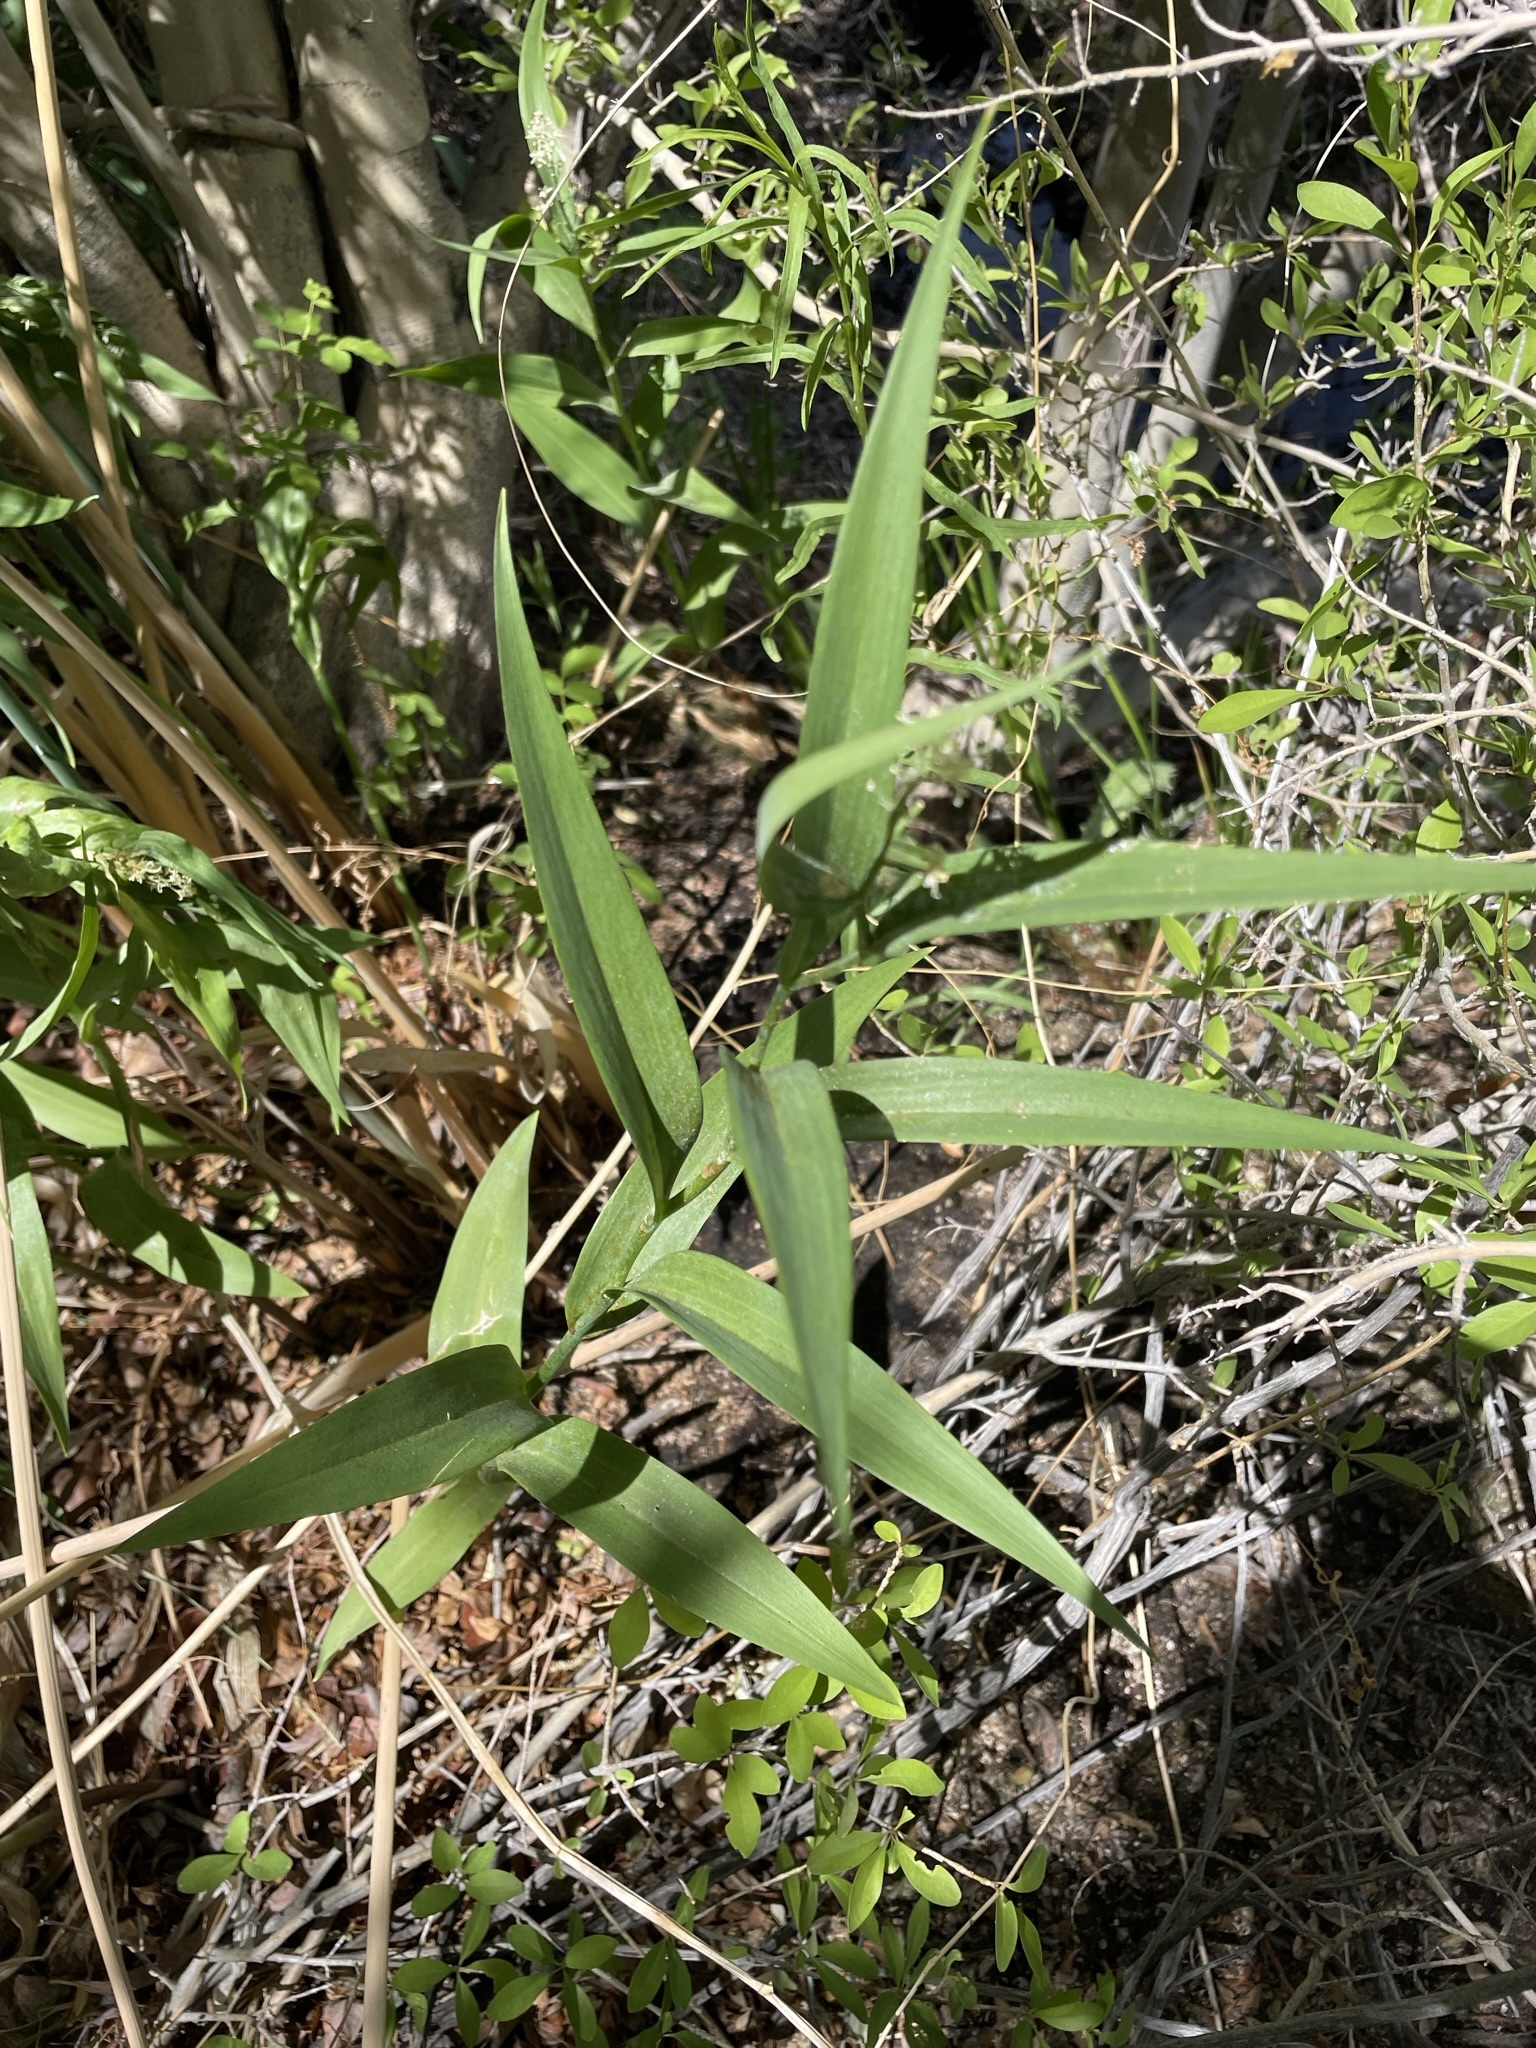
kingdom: Plantae
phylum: Tracheophyta
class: Liliopsida
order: Asparagales
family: Asparagaceae
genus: Maianthemum
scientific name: Maianthemum stellatum
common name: Little false solomon's seal
